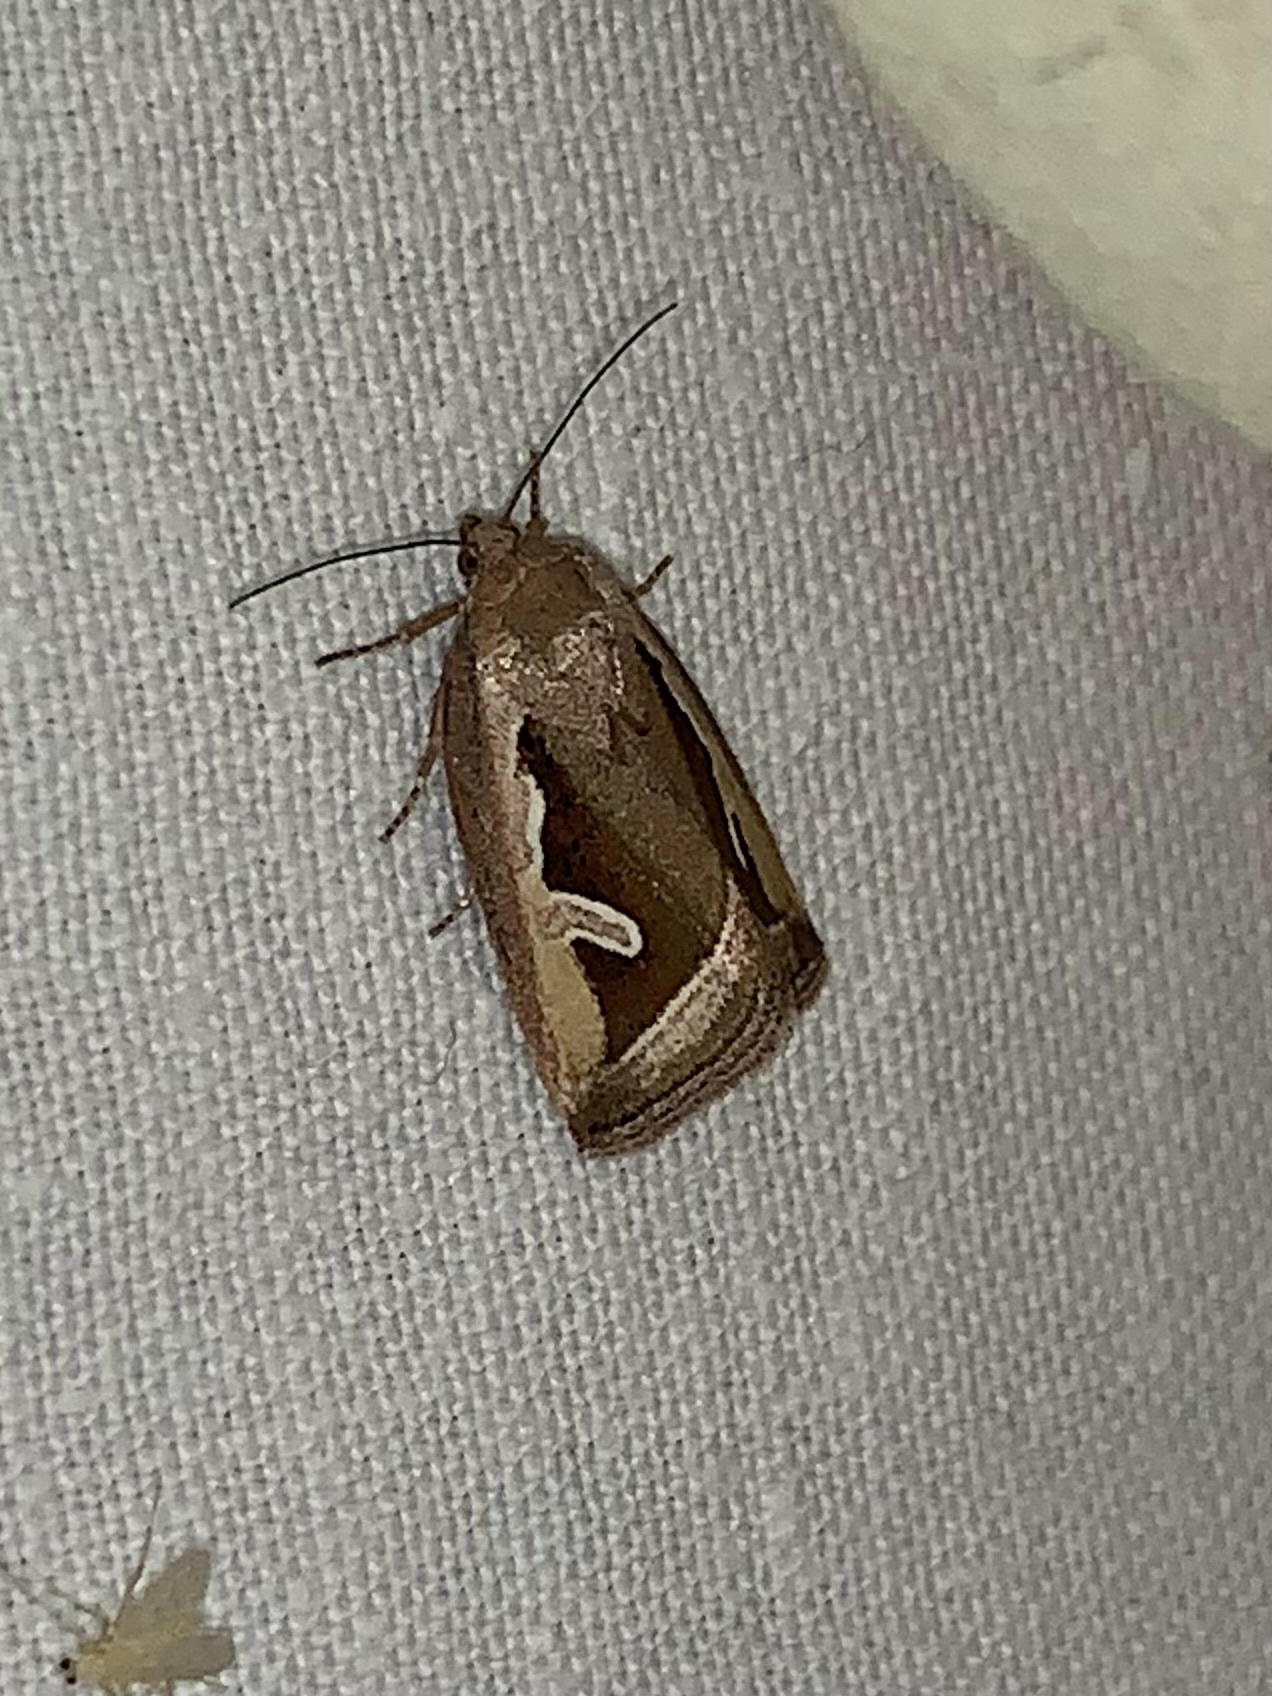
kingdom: Animalia
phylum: Arthropoda
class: Insecta
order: Lepidoptera
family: Noctuidae
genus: Deltote
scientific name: Deltote uncula
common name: Silver hook
